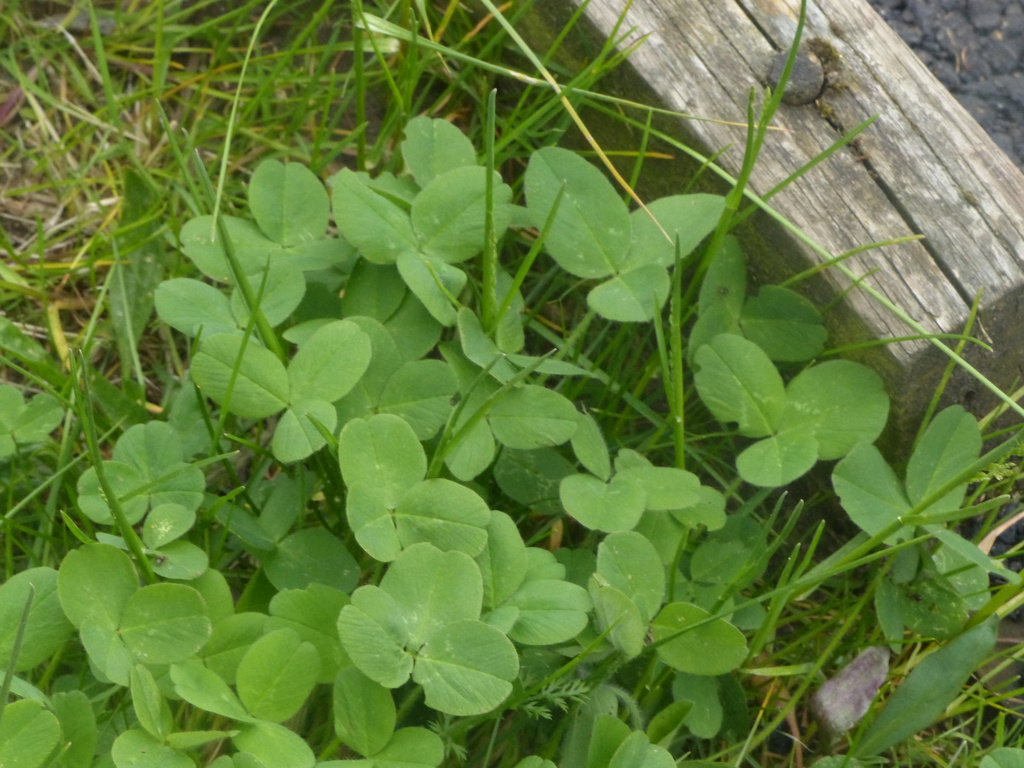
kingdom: Plantae
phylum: Tracheophyta
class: Magnoliopsida
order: Fabales
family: Fabaceae
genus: Trifolium
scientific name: Trifolium repens
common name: White clover
